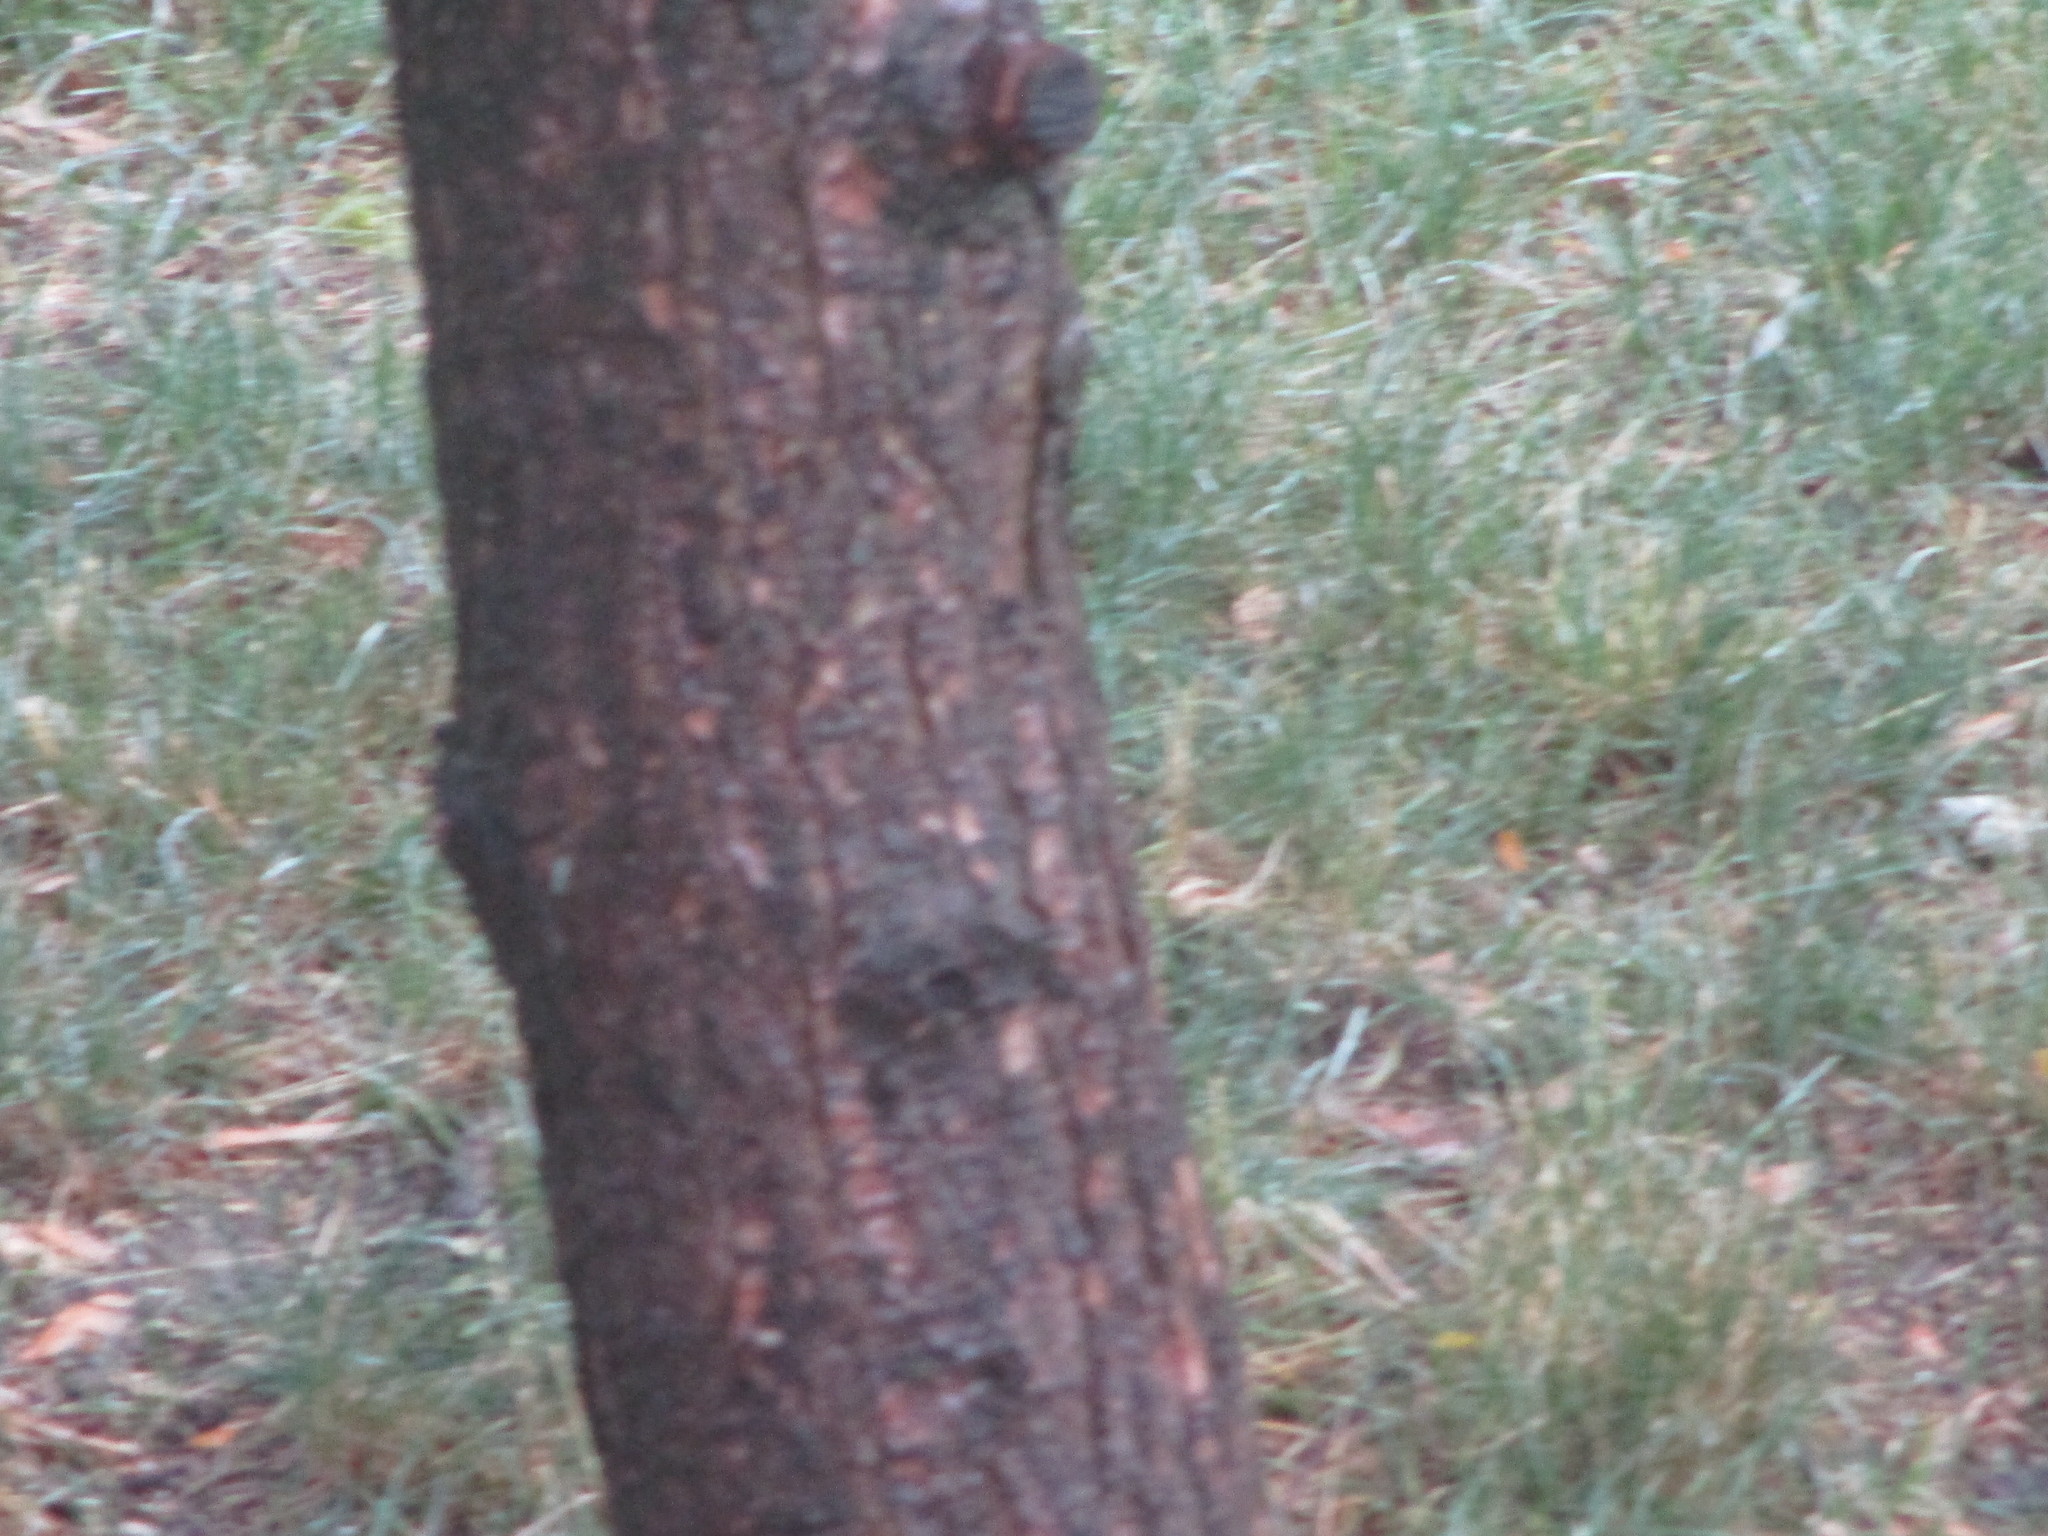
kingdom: Plantae
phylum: Tracheophyta
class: Pinopsida
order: Pinales
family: Pinaceae
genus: Tsuga
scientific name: Tsuga canadensis
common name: Eastern hemlock
